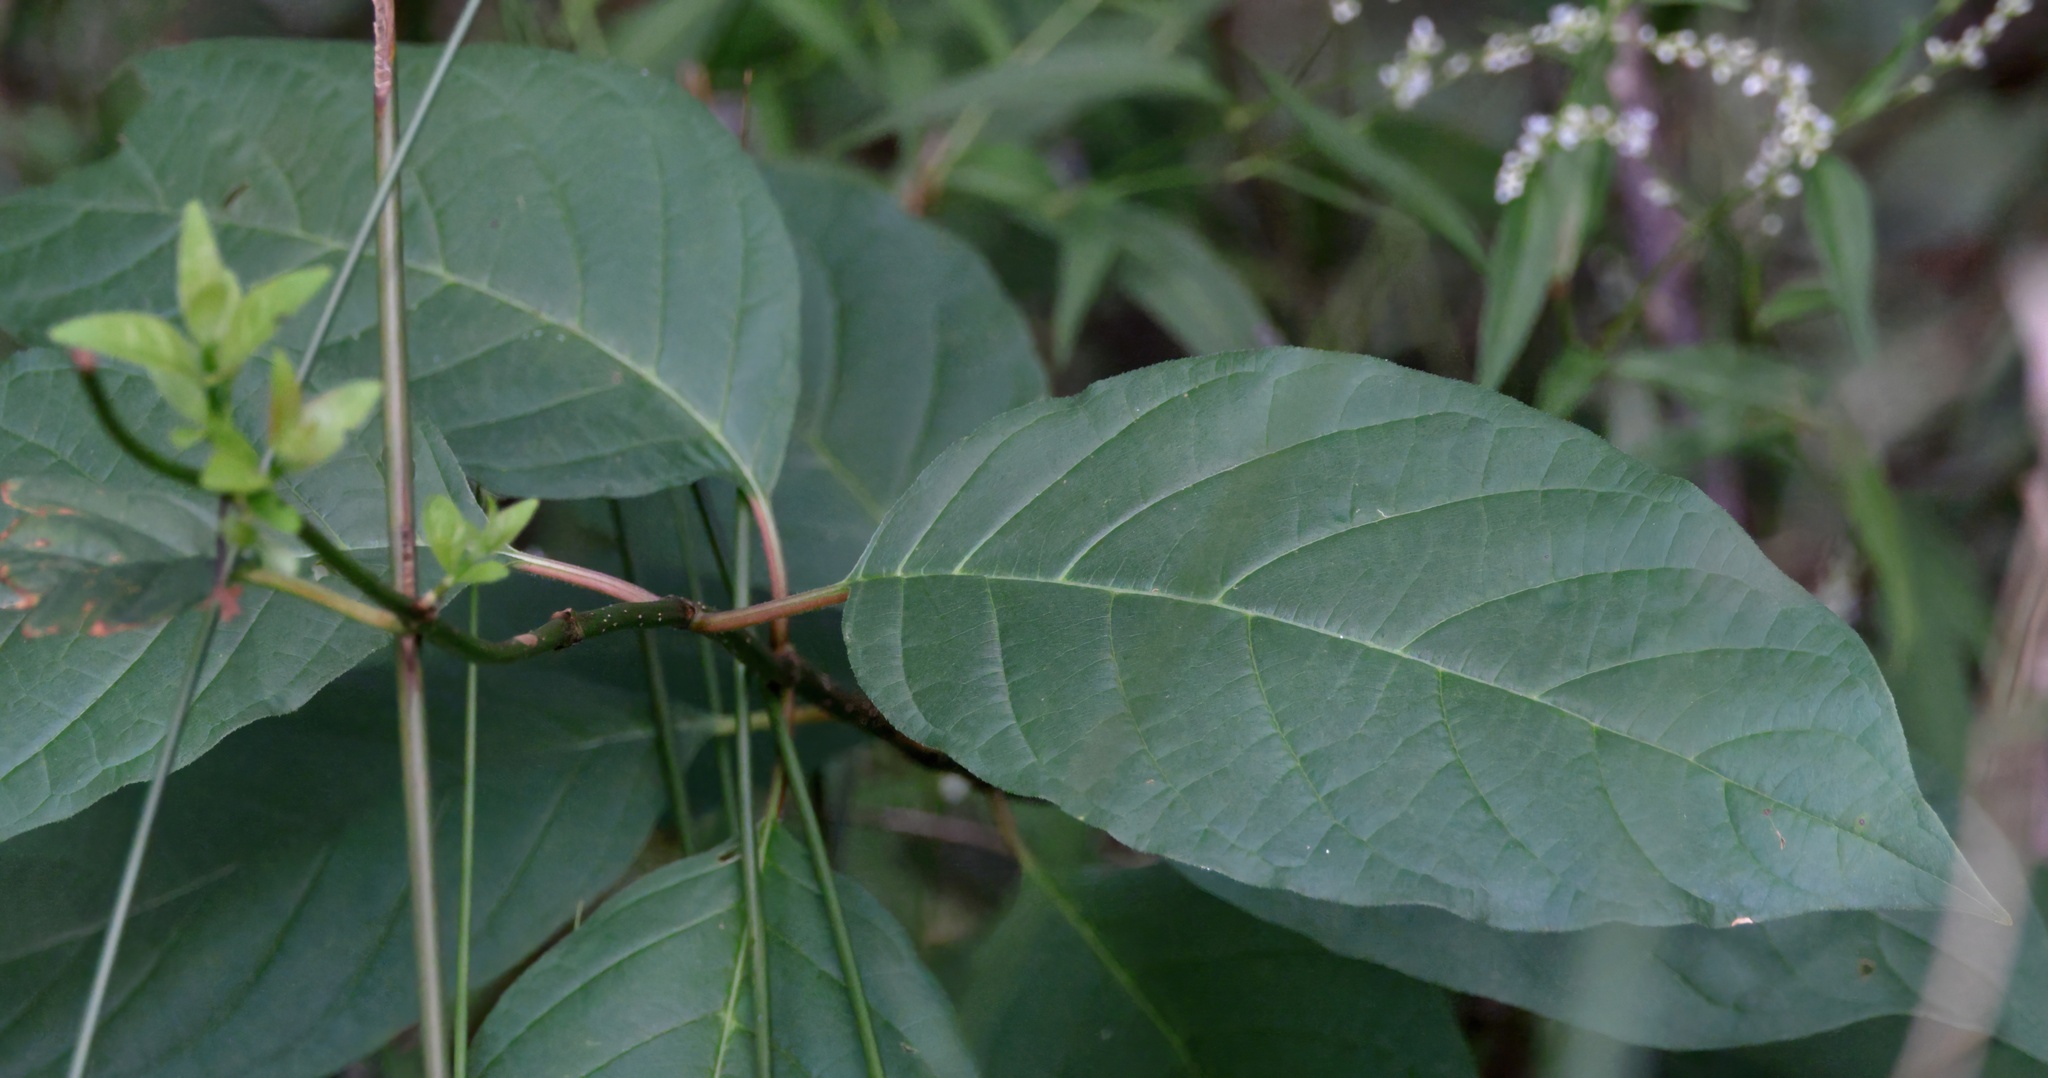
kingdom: Plantae
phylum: Tracheophyta
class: Magnoliopsida
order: Gentianales
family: Rubiaceae
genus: Cephalanthus
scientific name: Cephalanthus occidentalis
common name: Button-willow
